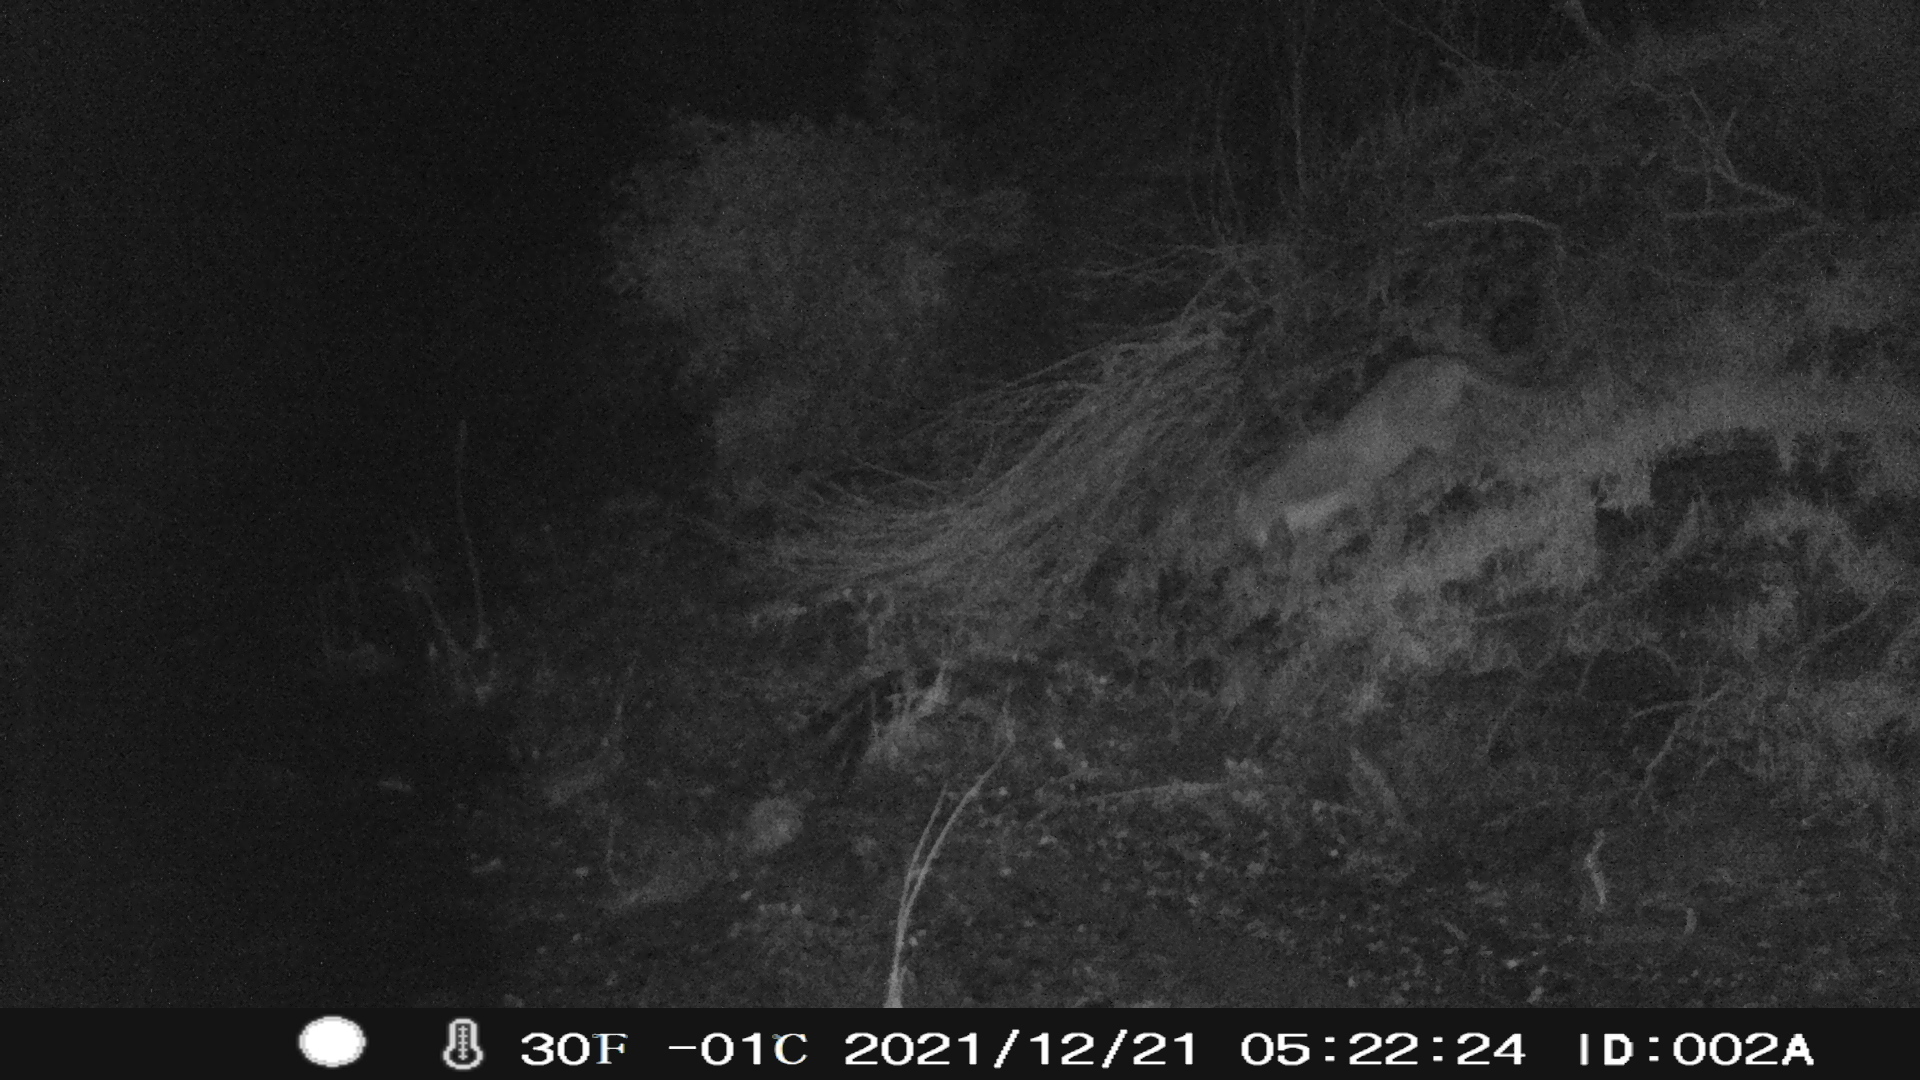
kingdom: Animalia
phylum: Chordata
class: Mammalia
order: Carnivora
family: Felidae
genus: Puma
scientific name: Puma concolor
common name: Puma
